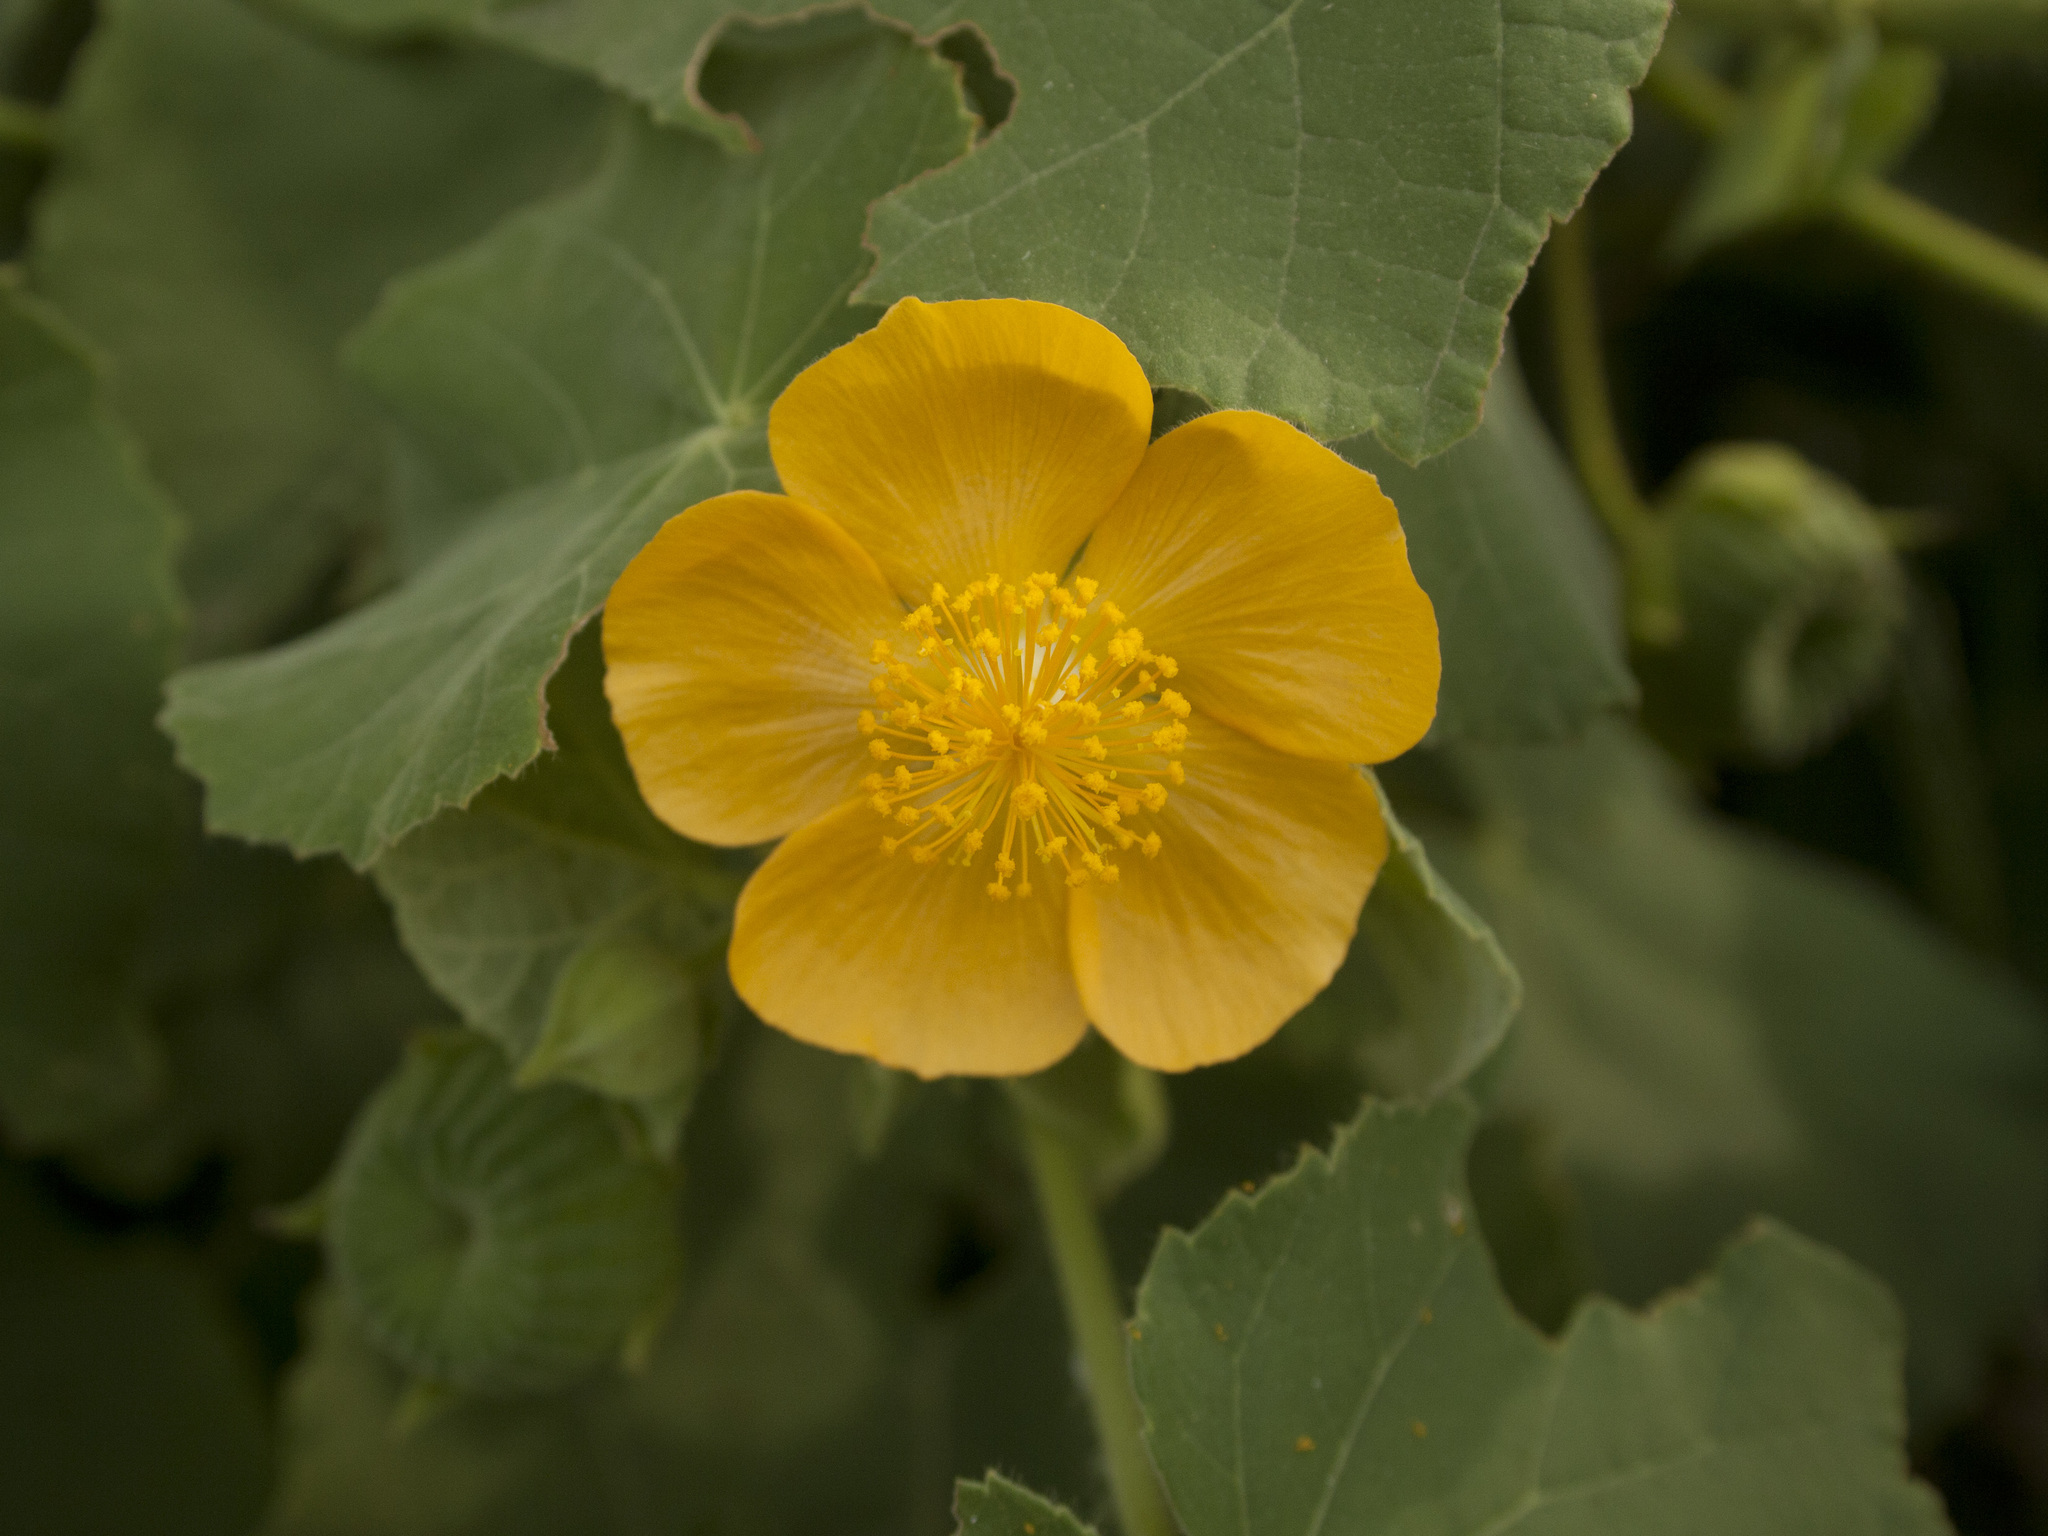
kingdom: Plantae
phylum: Tracheophyta
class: Magnoliopsida
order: Malvales
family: Malvaceae
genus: Abutilon
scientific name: Abutilon pannosum
